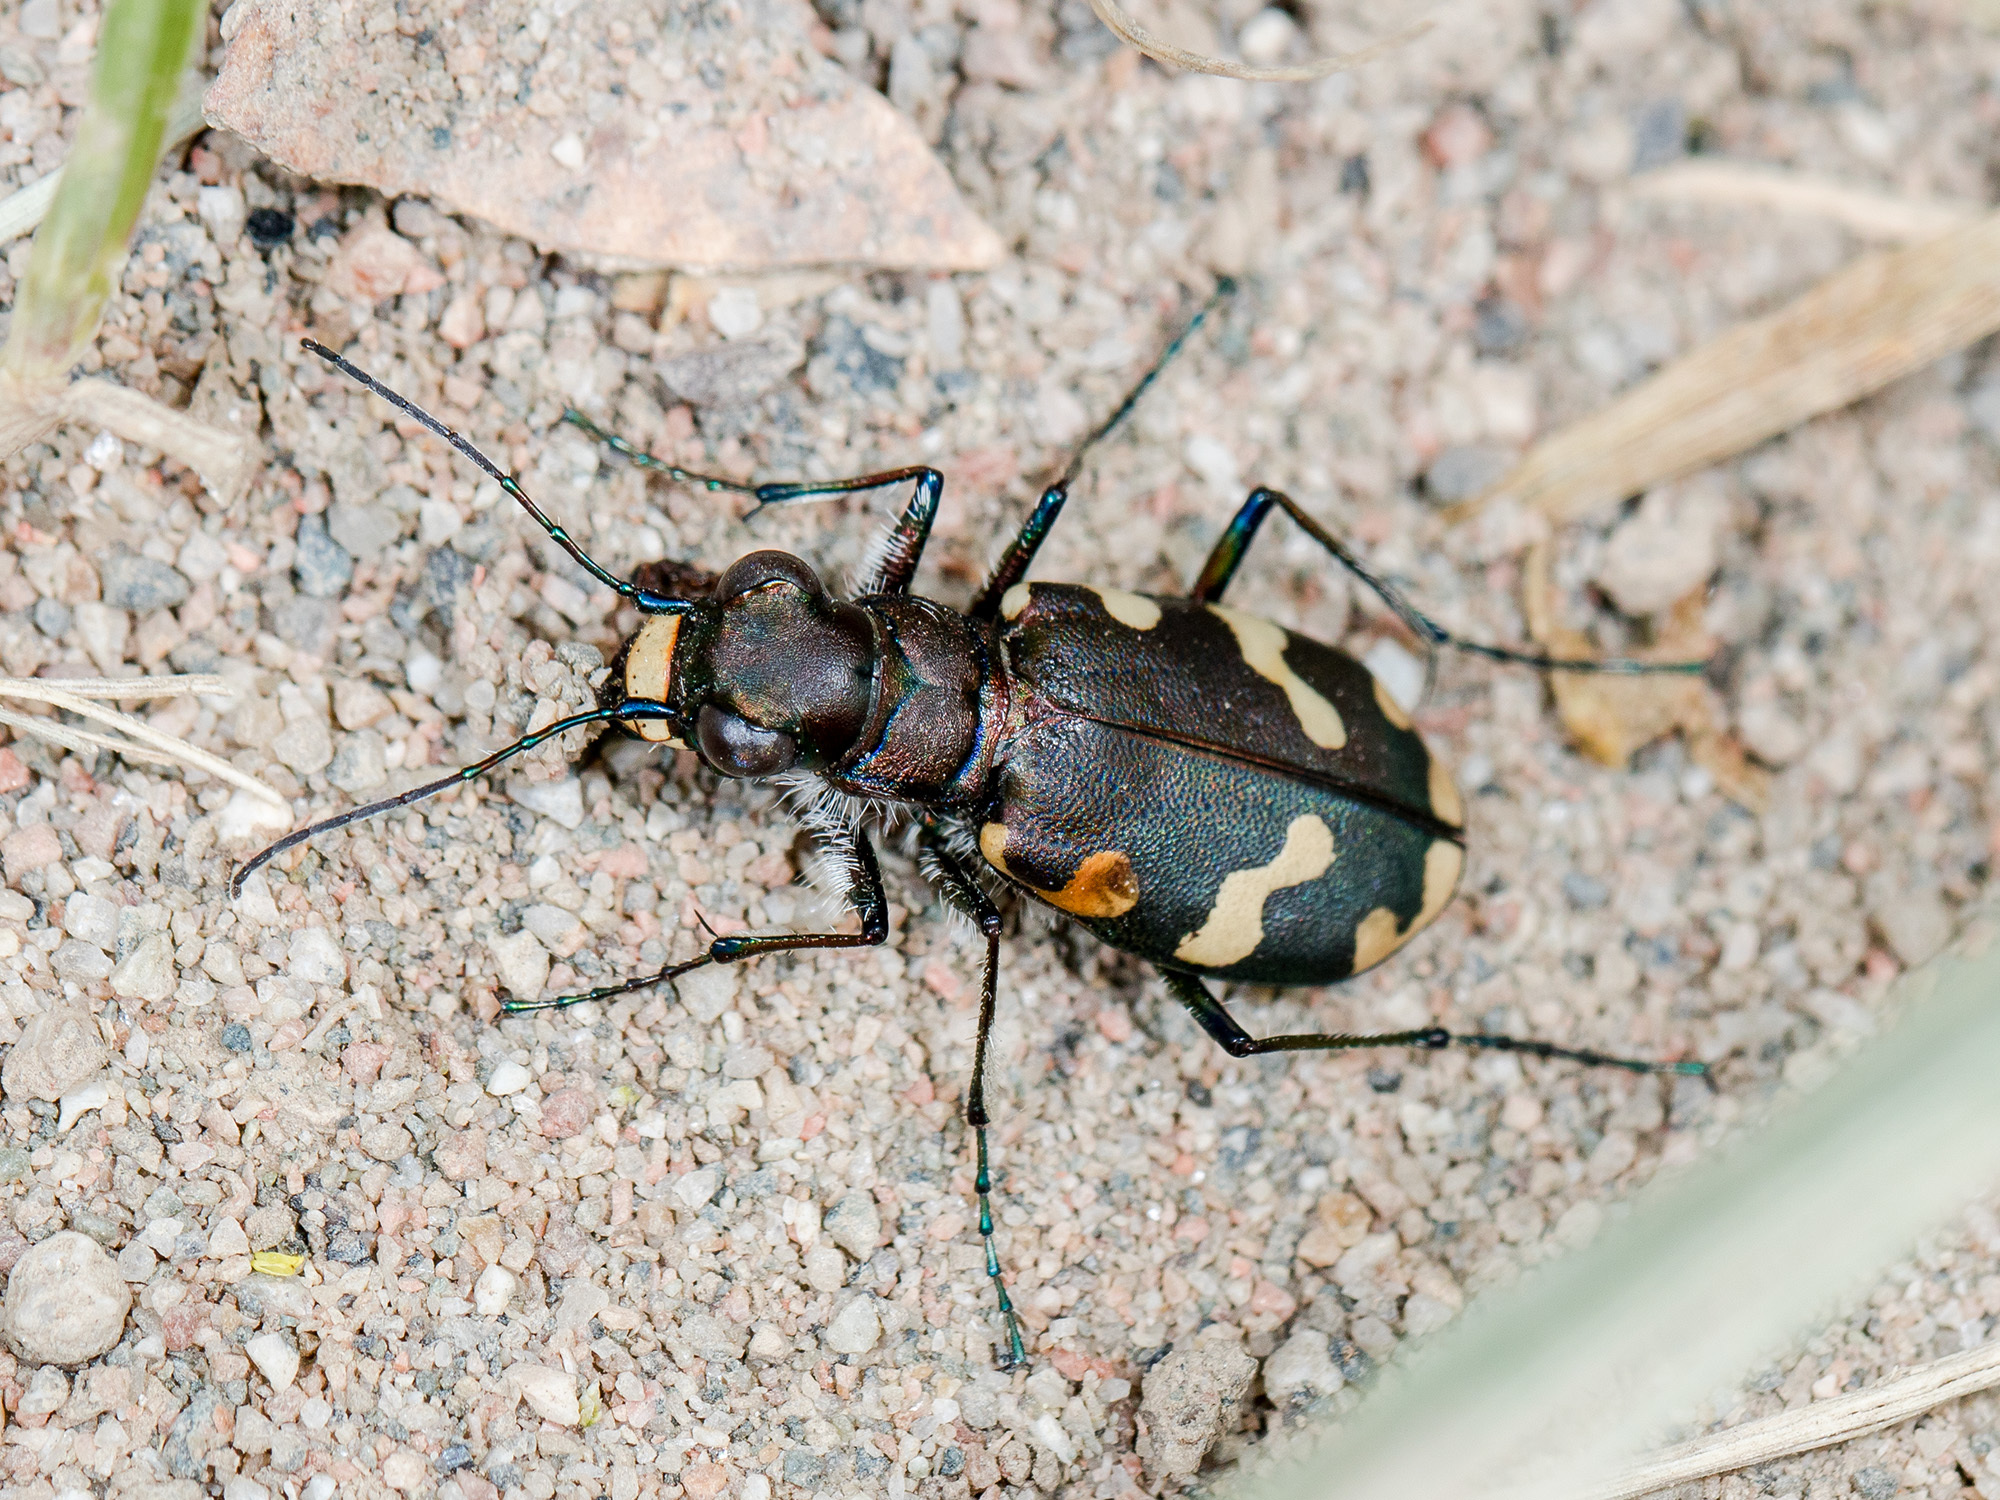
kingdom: Animalia
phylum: Arthropoda
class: Insecta
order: Coleoptera
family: Carabidae
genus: Cicindela
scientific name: Cicindela songorica
